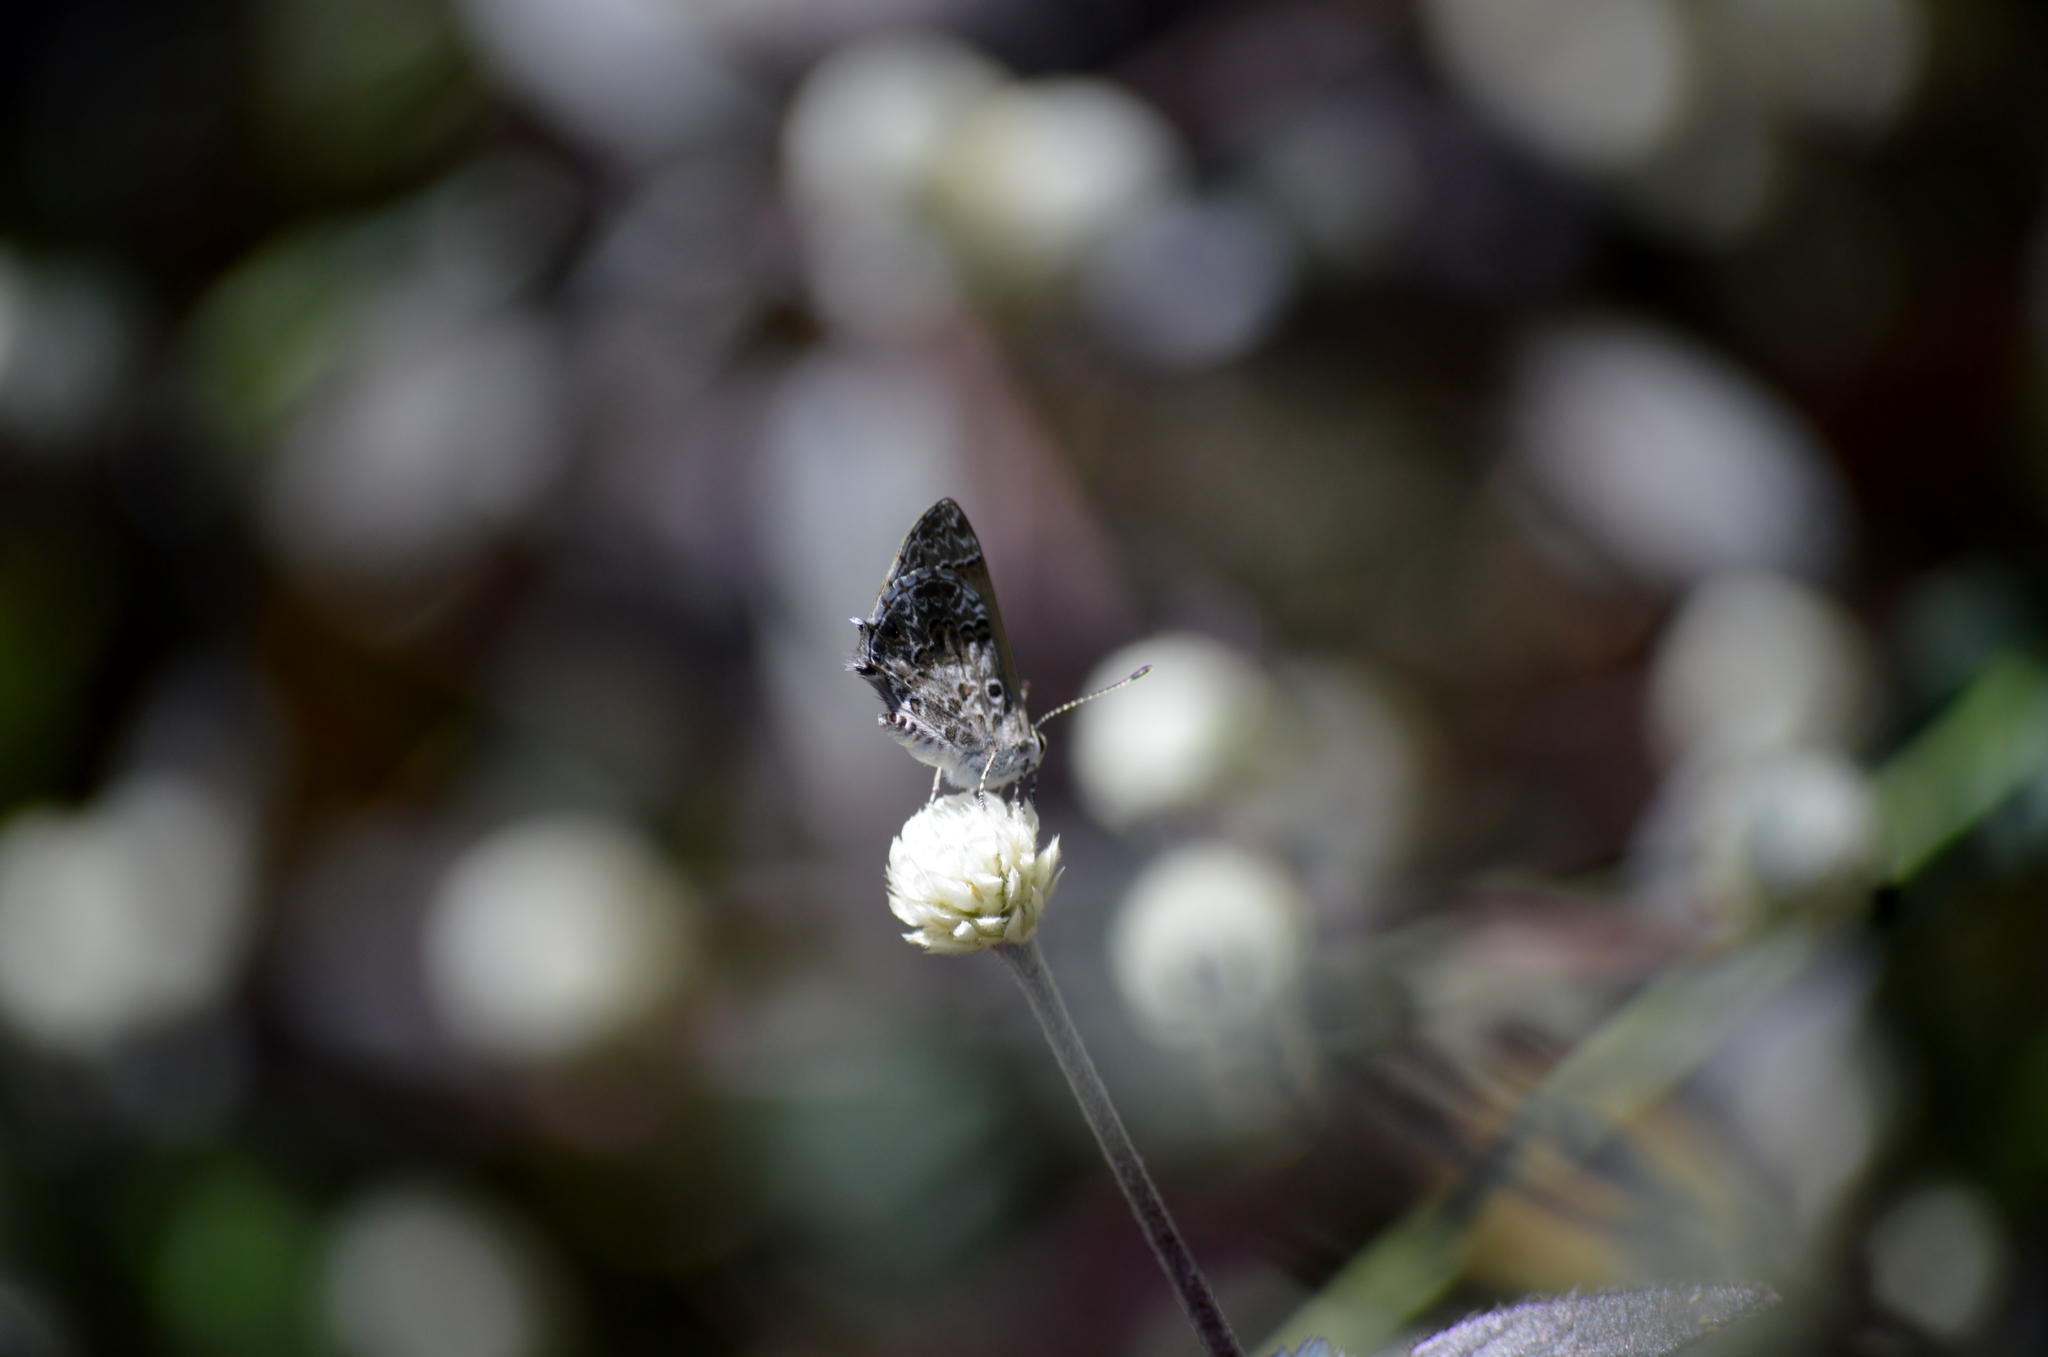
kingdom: Animalia
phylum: Arthropoda
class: Insecta
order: Lepidoptera
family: Lycaenidae
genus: Strymon
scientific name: Strymon astiocha
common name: Gray-spotted scrub-hairstreak
